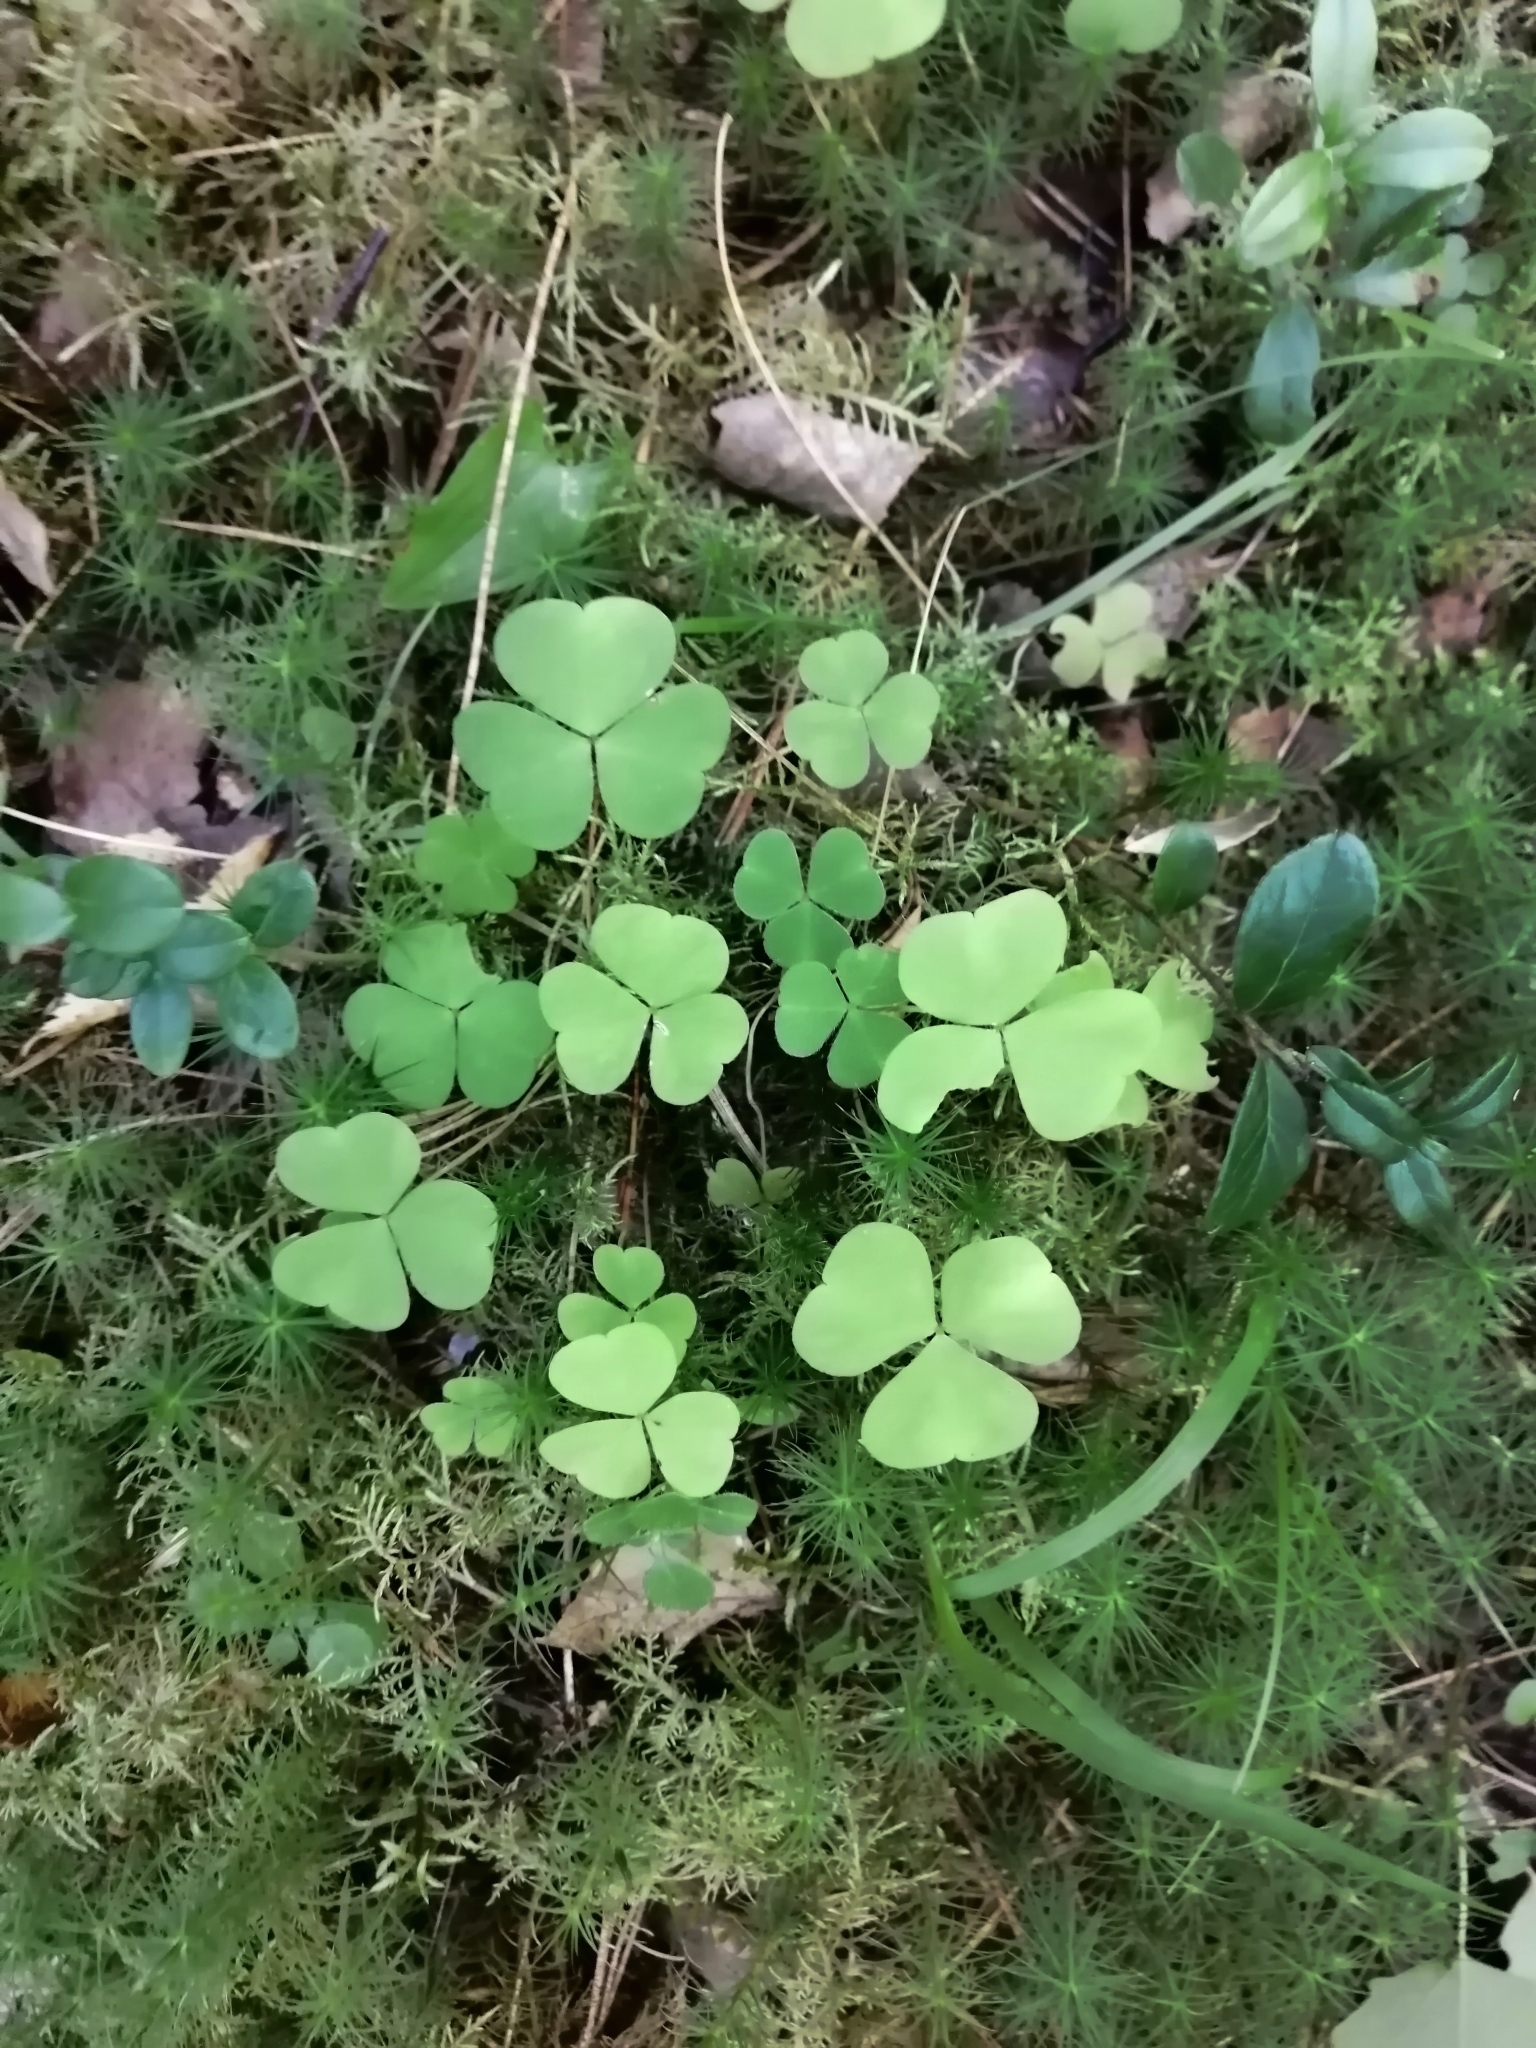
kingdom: Plantae
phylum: Tracheophyta
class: Magnoliopsida
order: Oxalidales
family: Oxalidaceae
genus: Oxalis
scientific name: Oxalis acetosella
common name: Wood-sorrel
